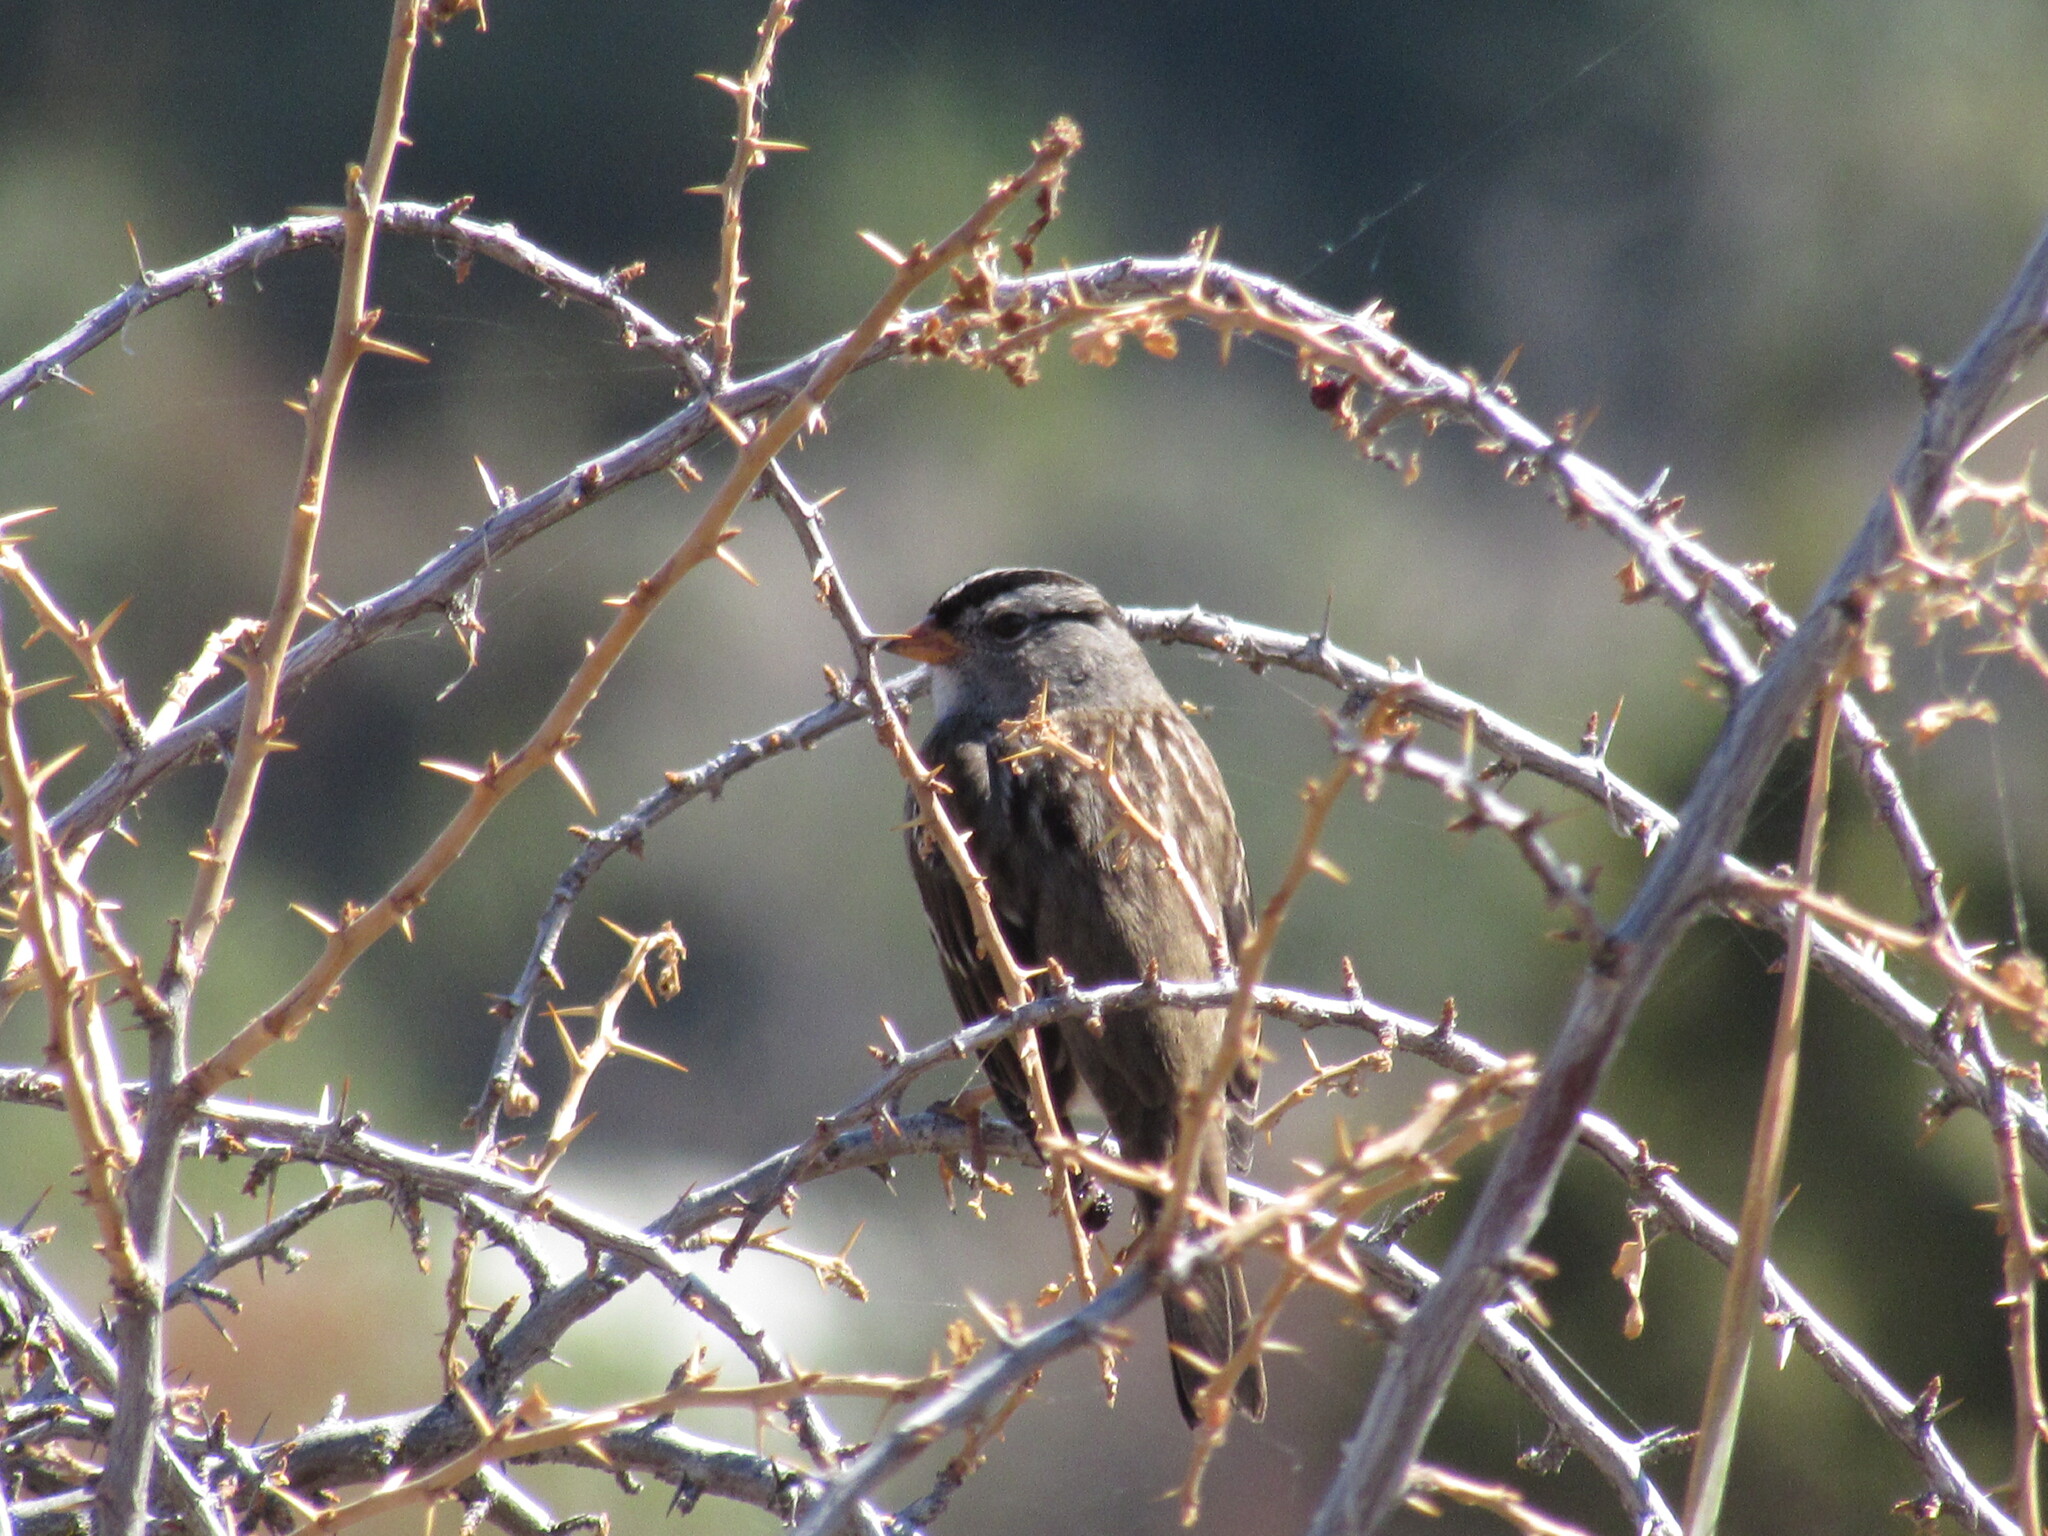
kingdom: Animalia
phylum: Chordata
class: Aves
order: Passeriformes
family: Passerellidae
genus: Zonotrichia
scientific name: Zonotrichia leucophrys
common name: White-crowned sparrow
